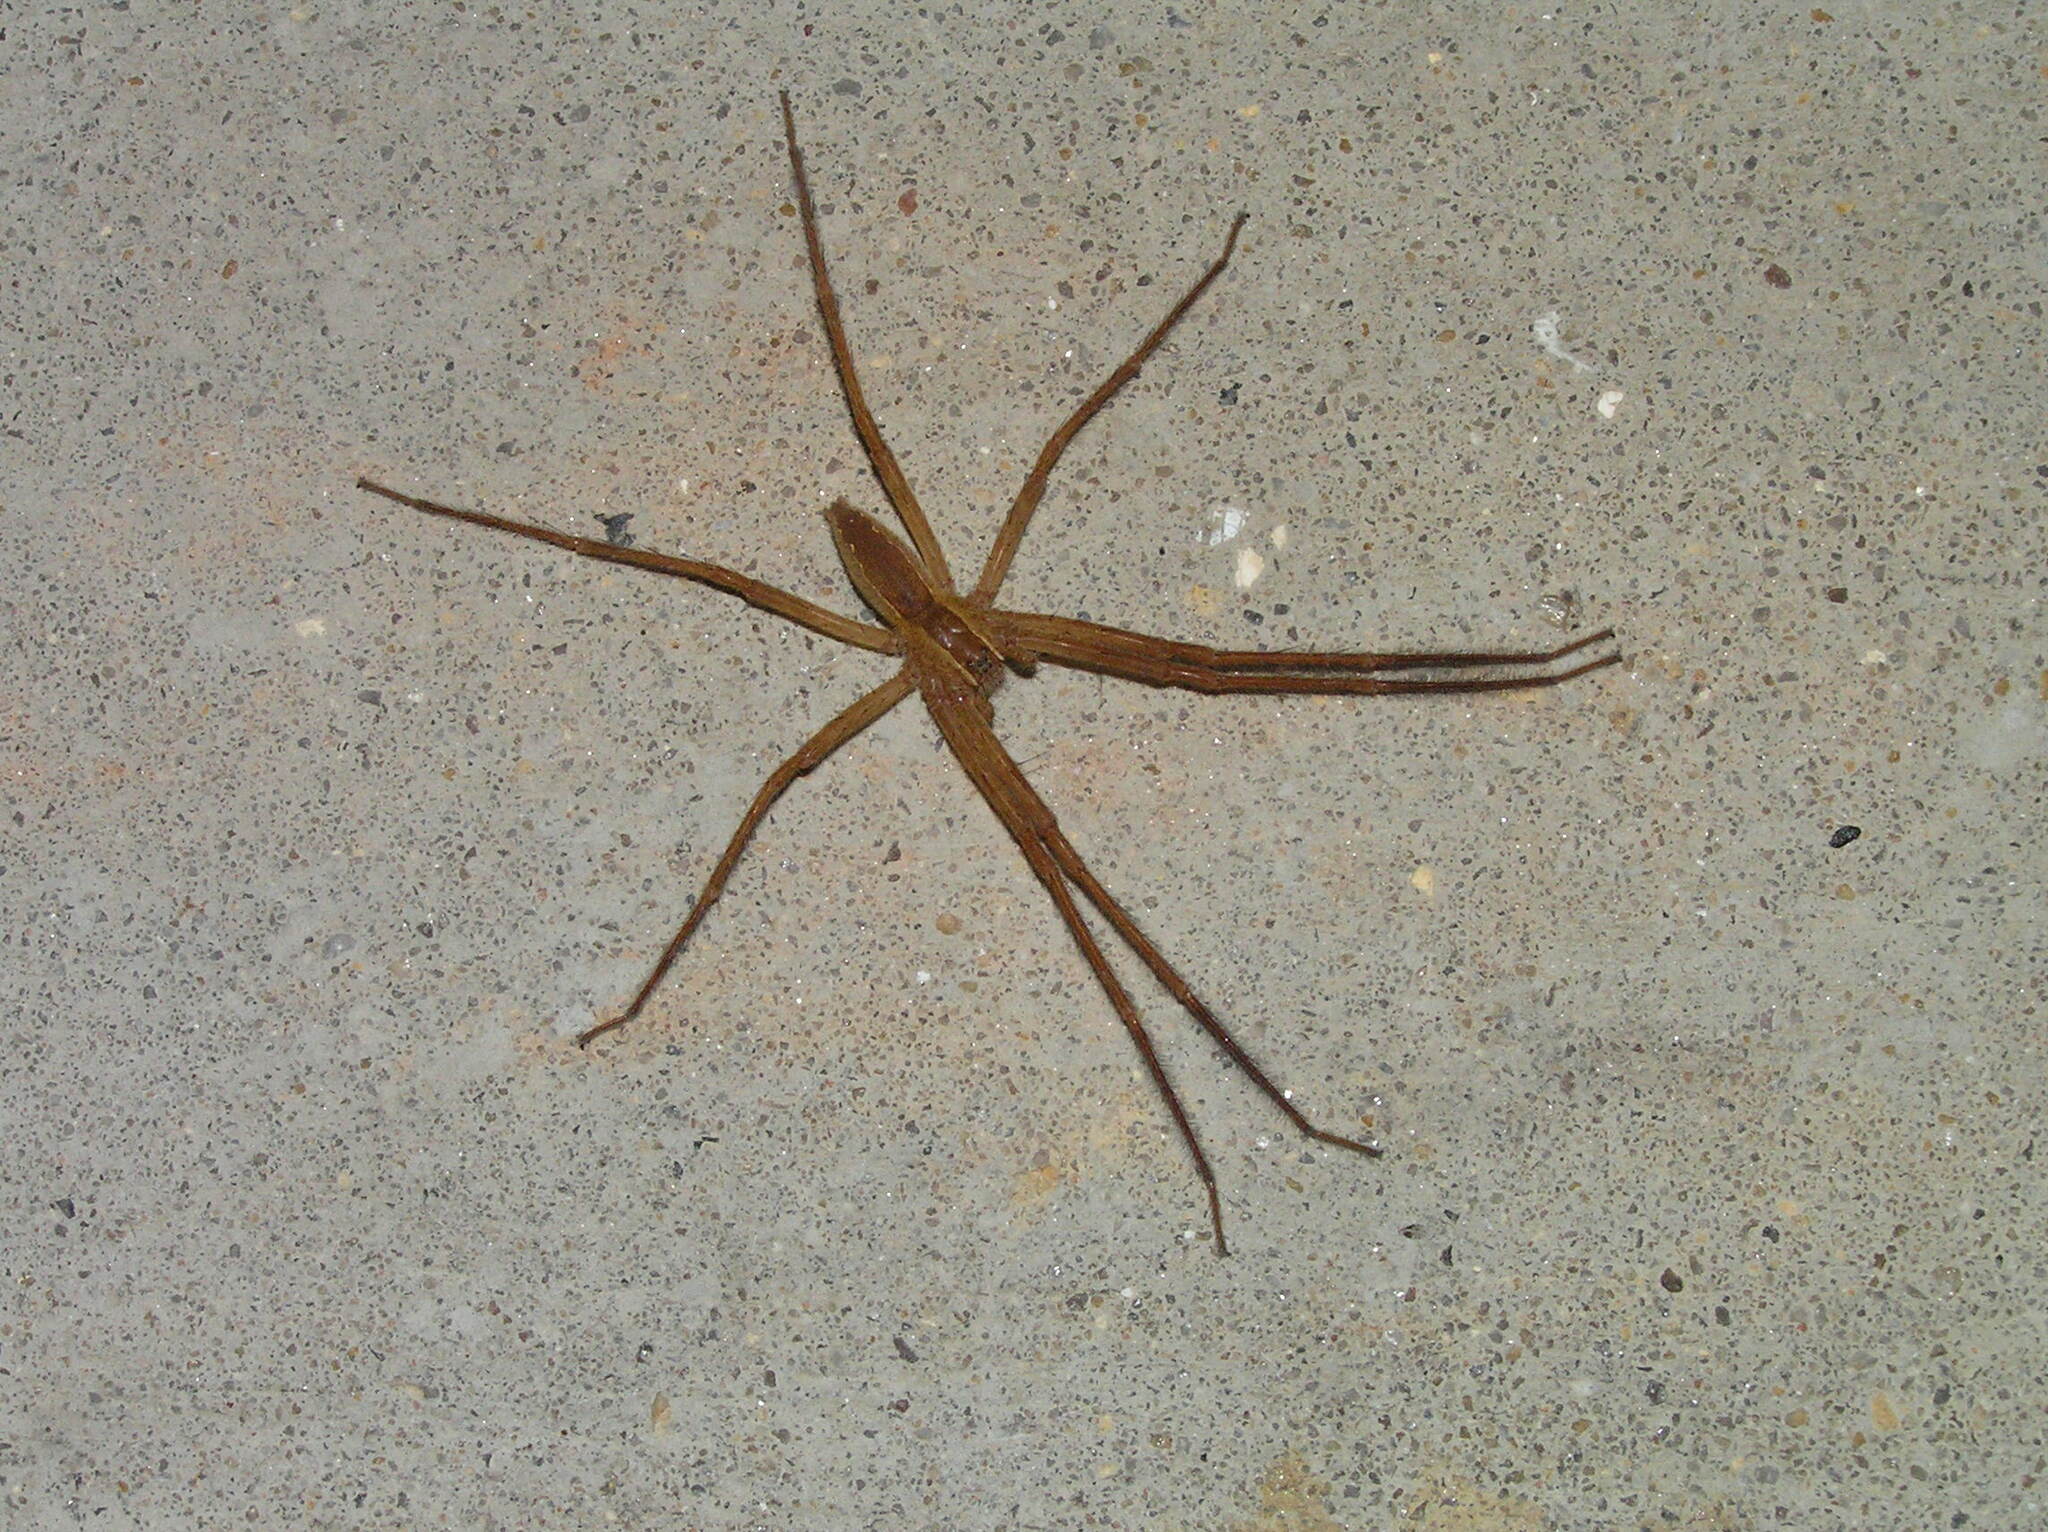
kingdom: Animalia
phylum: Arthropoda
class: Arachnida
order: Araneae
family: Pisauridae
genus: Pisaurina
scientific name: Pisaurina mira
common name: American nursery web spider
